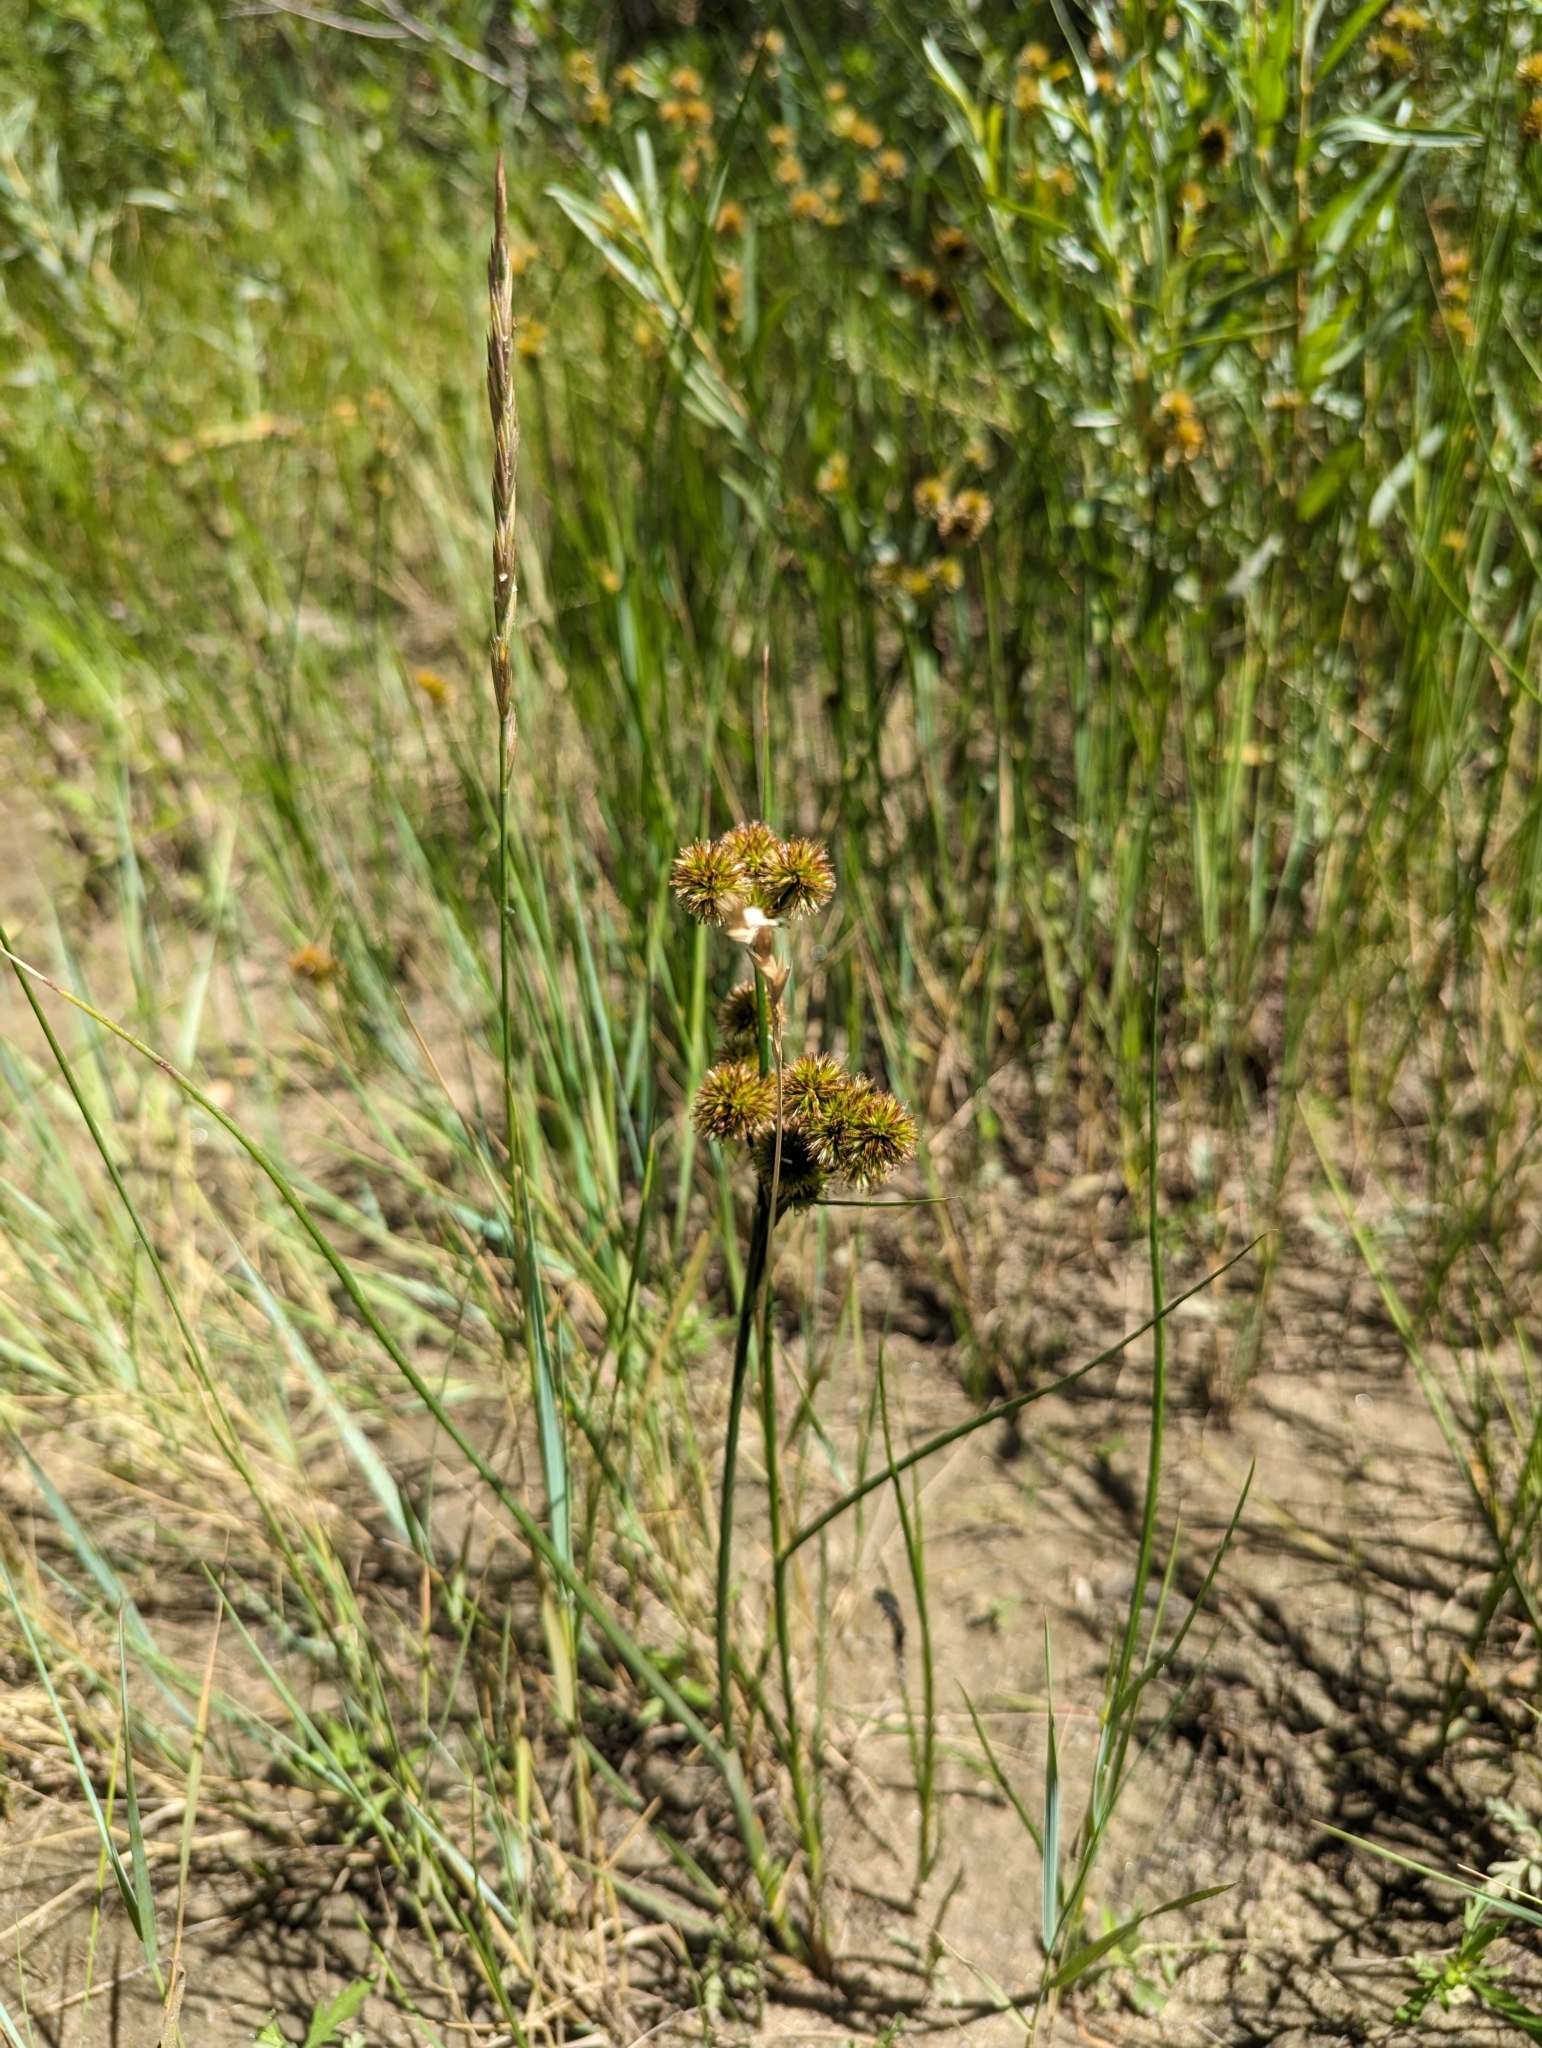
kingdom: Plantae
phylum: Tracheophyta
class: Liliopsida
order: Poales
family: Juncaceae
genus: Juncus
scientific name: Juncus torreyi
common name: Torrey's rush
